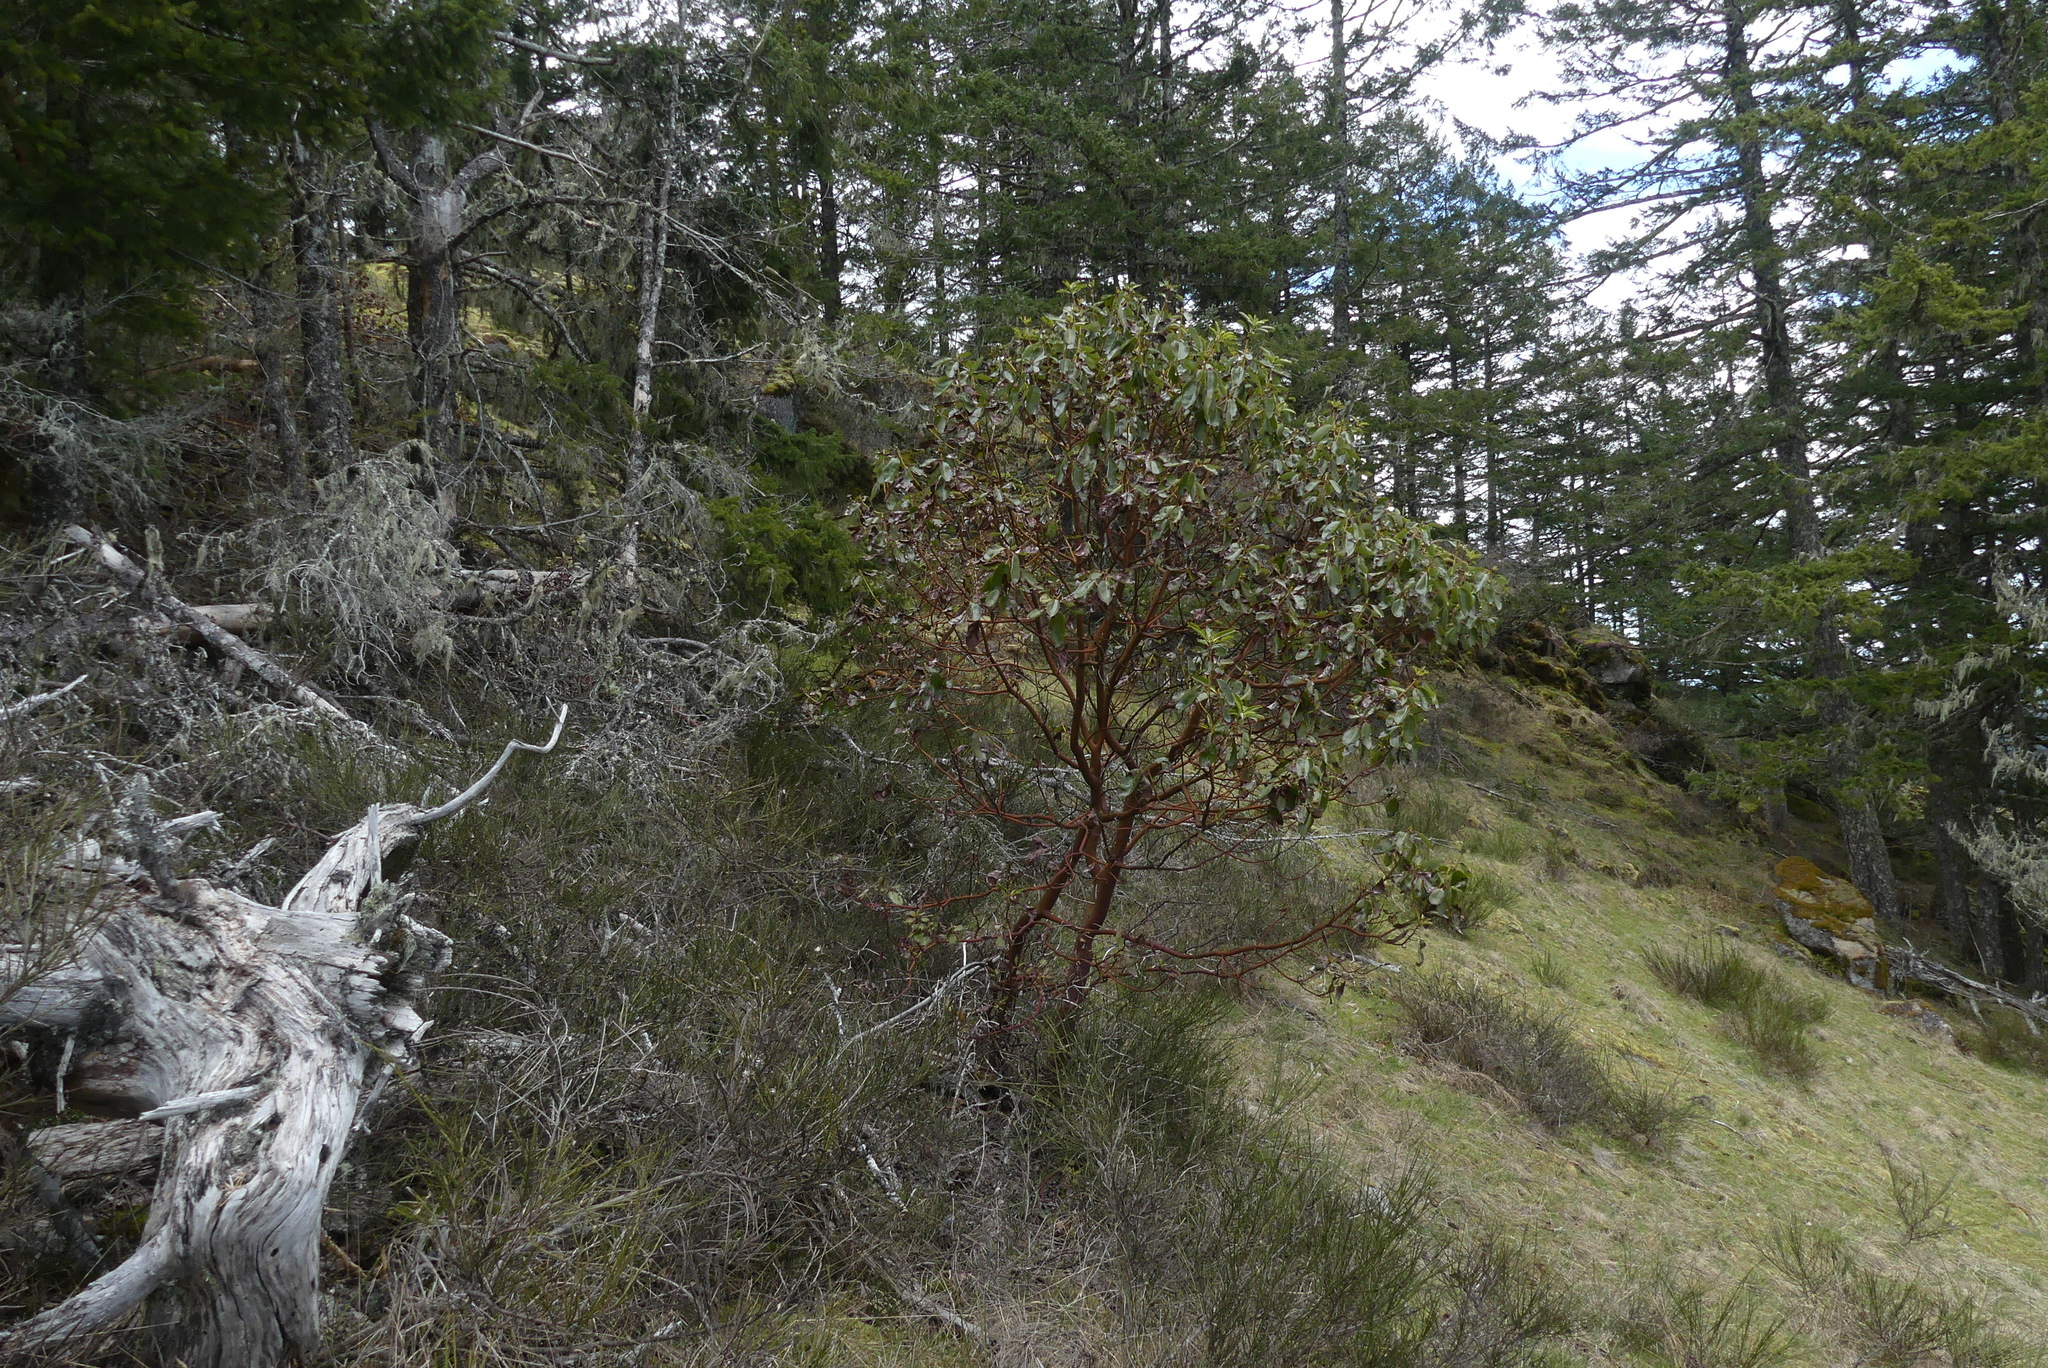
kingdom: Plantae
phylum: Tracheophyta
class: Magnoliopsida
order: Ericales
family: Ericaceae
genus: Arbutus
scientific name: Arbutus menziesii
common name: Pacific madrone
